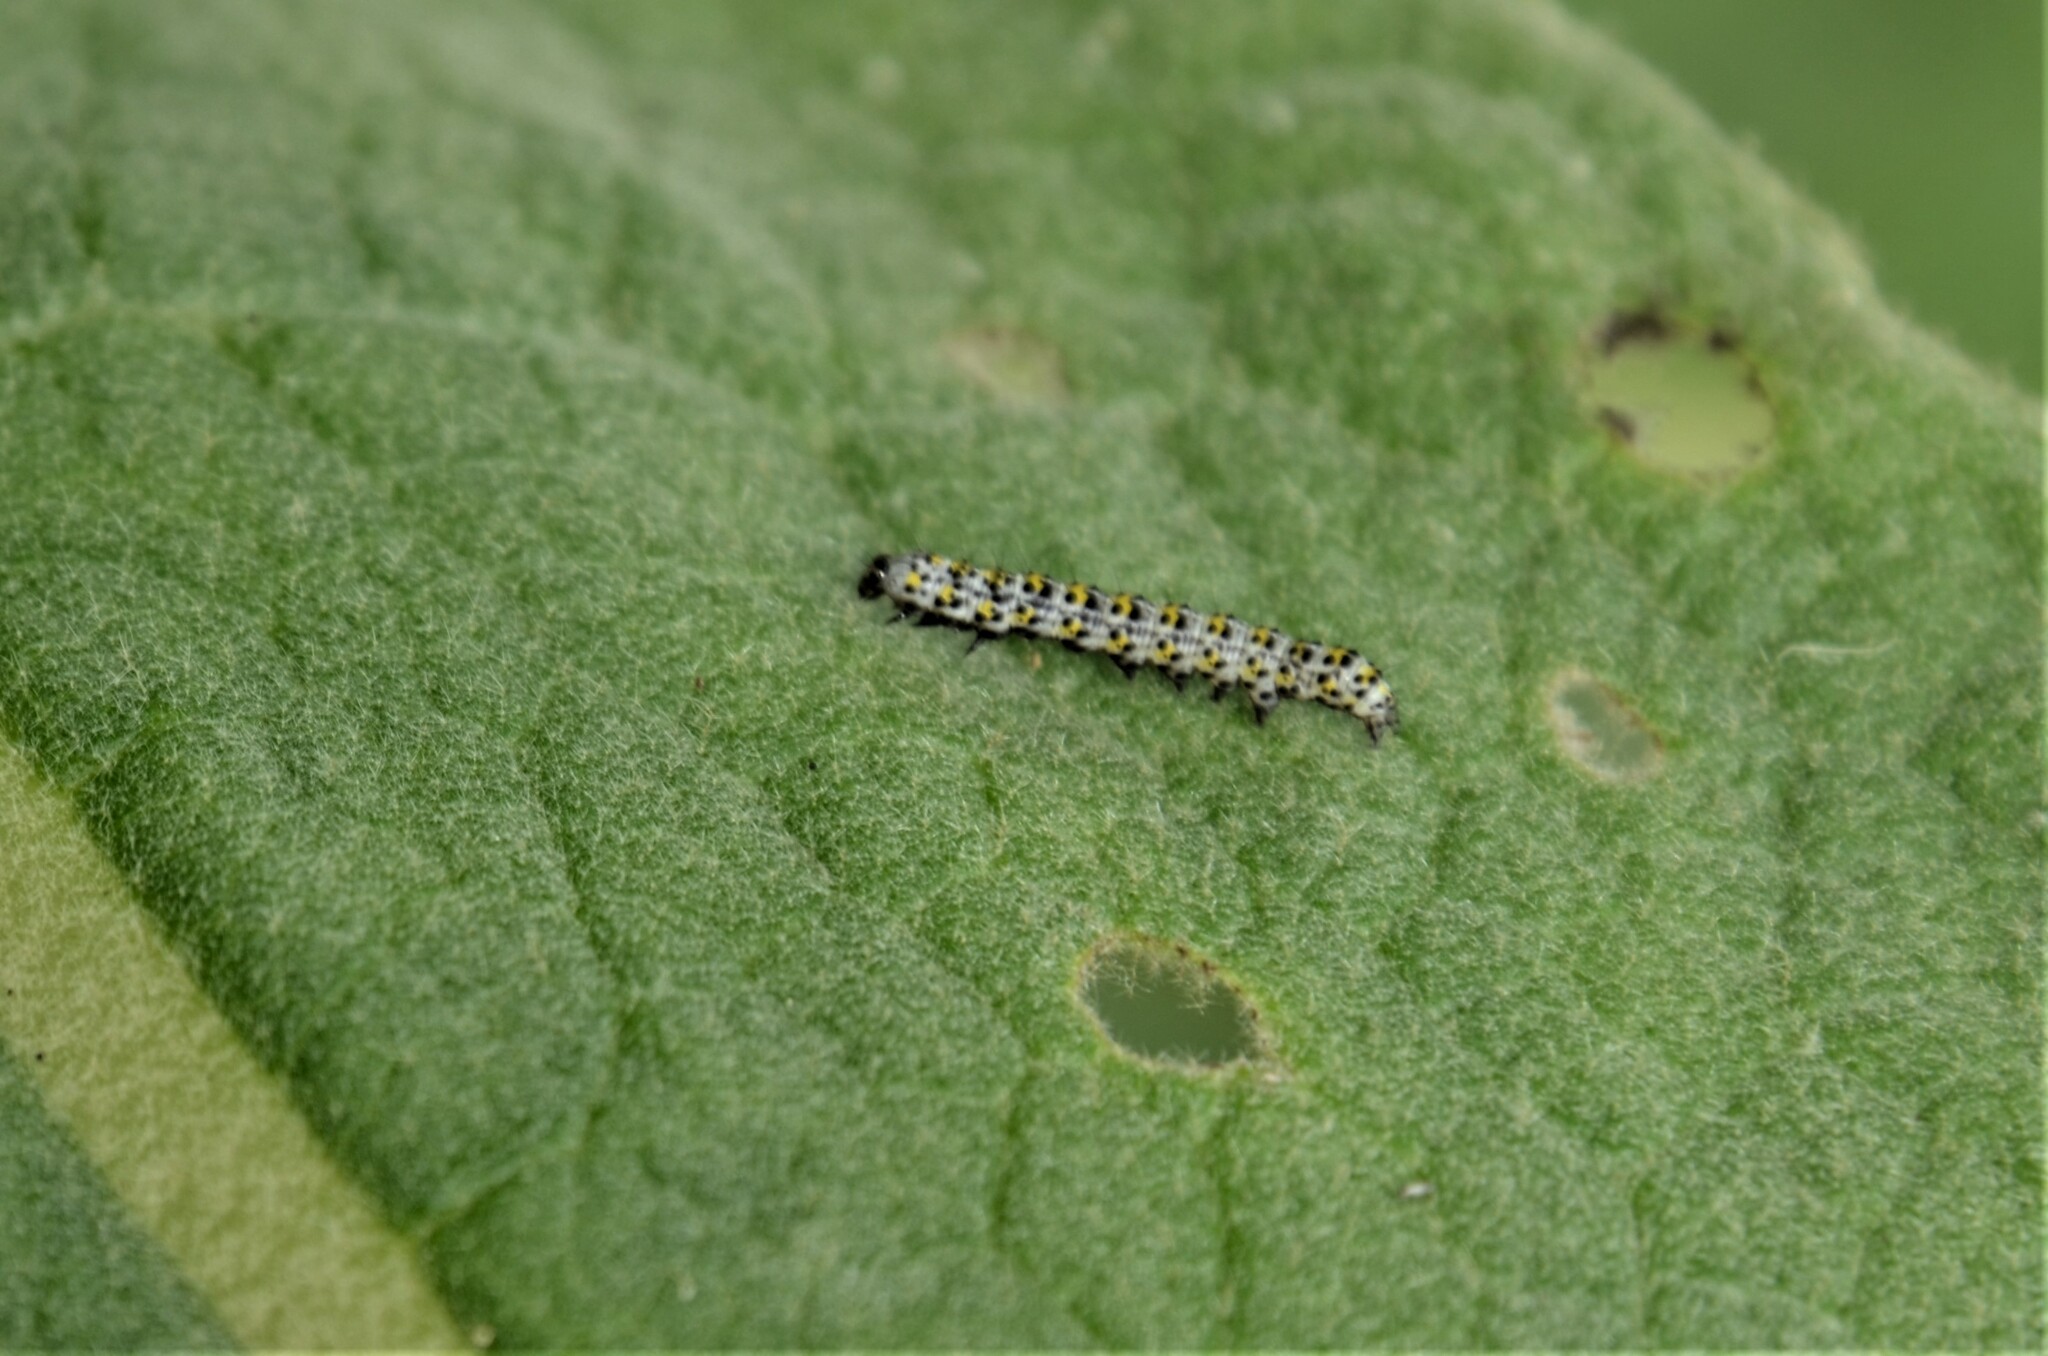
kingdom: Animalia
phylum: Arthropoda
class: Insecta
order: Lepidoptera
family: Noctuidae
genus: Cucullia
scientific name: Cucullia verbasci
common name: Mullein
